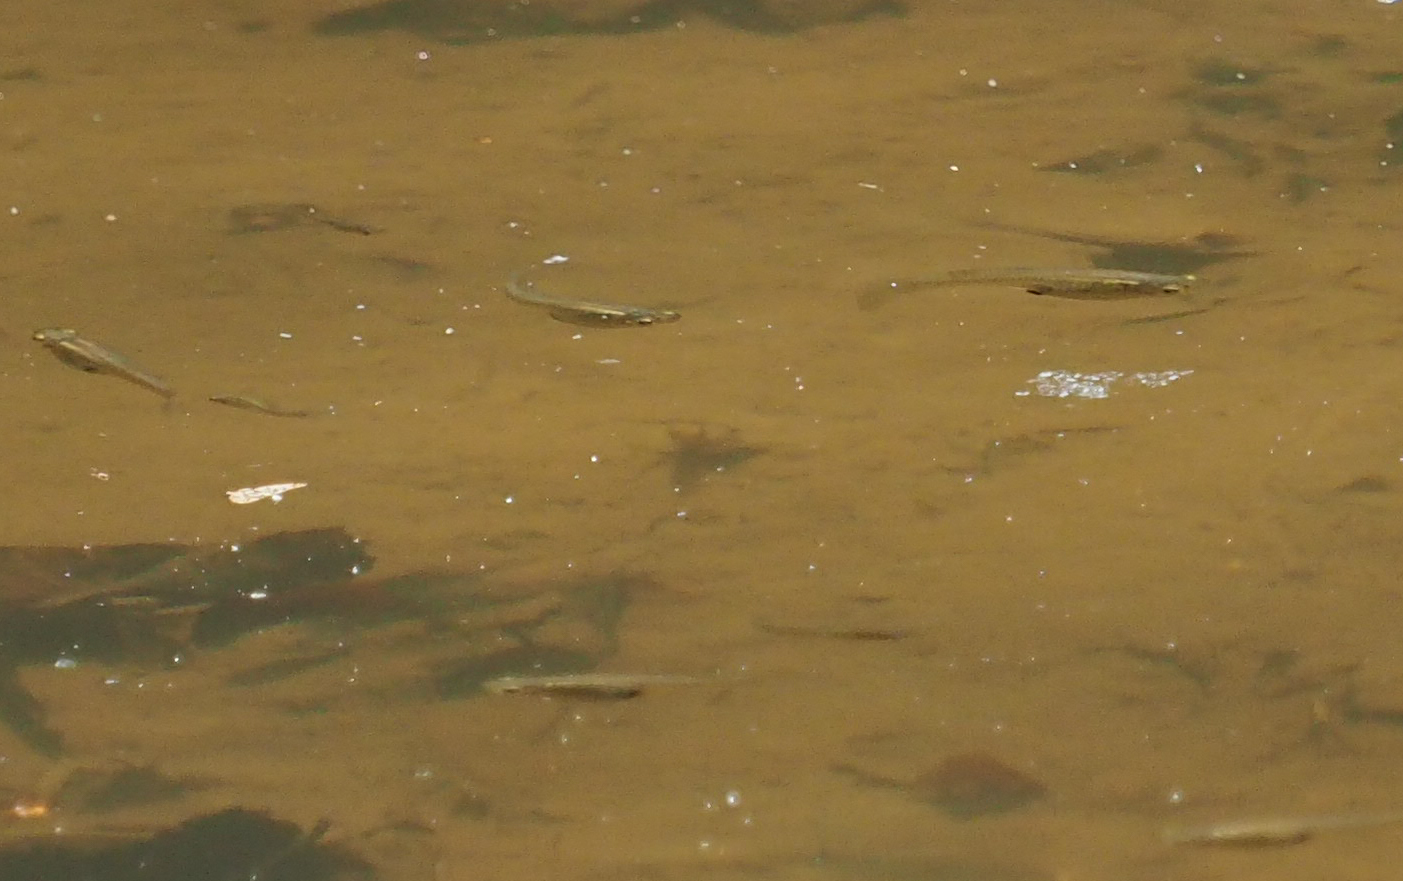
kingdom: Animalia
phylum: Chordata
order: Cyprinodontiformes
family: Poeciliidae
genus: Gambusia
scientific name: Gambusia holbrooki
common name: Eastern mosquitofish
